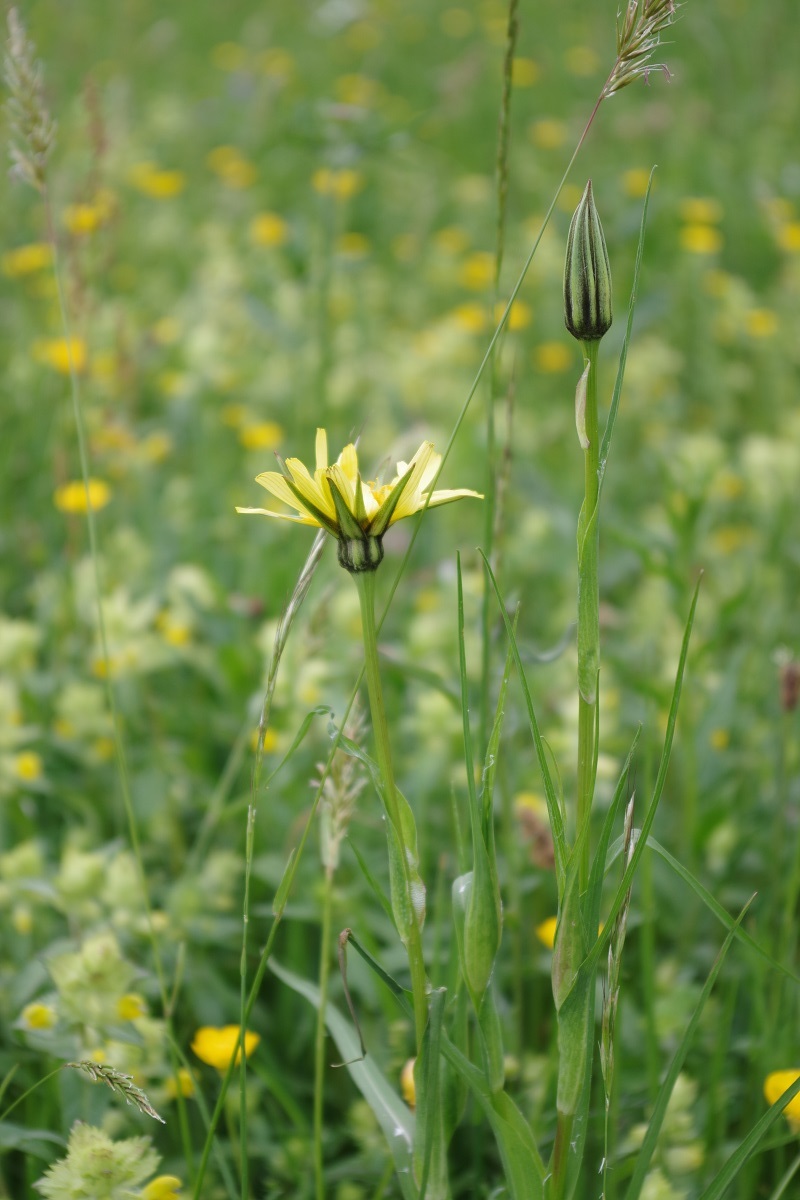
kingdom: Plantae
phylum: Tracheophyta
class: Magnoliopsida
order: Asterales
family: Asteraceae
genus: Tragopogon
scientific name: Tragopogon pratensis
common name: Goat's-beard
